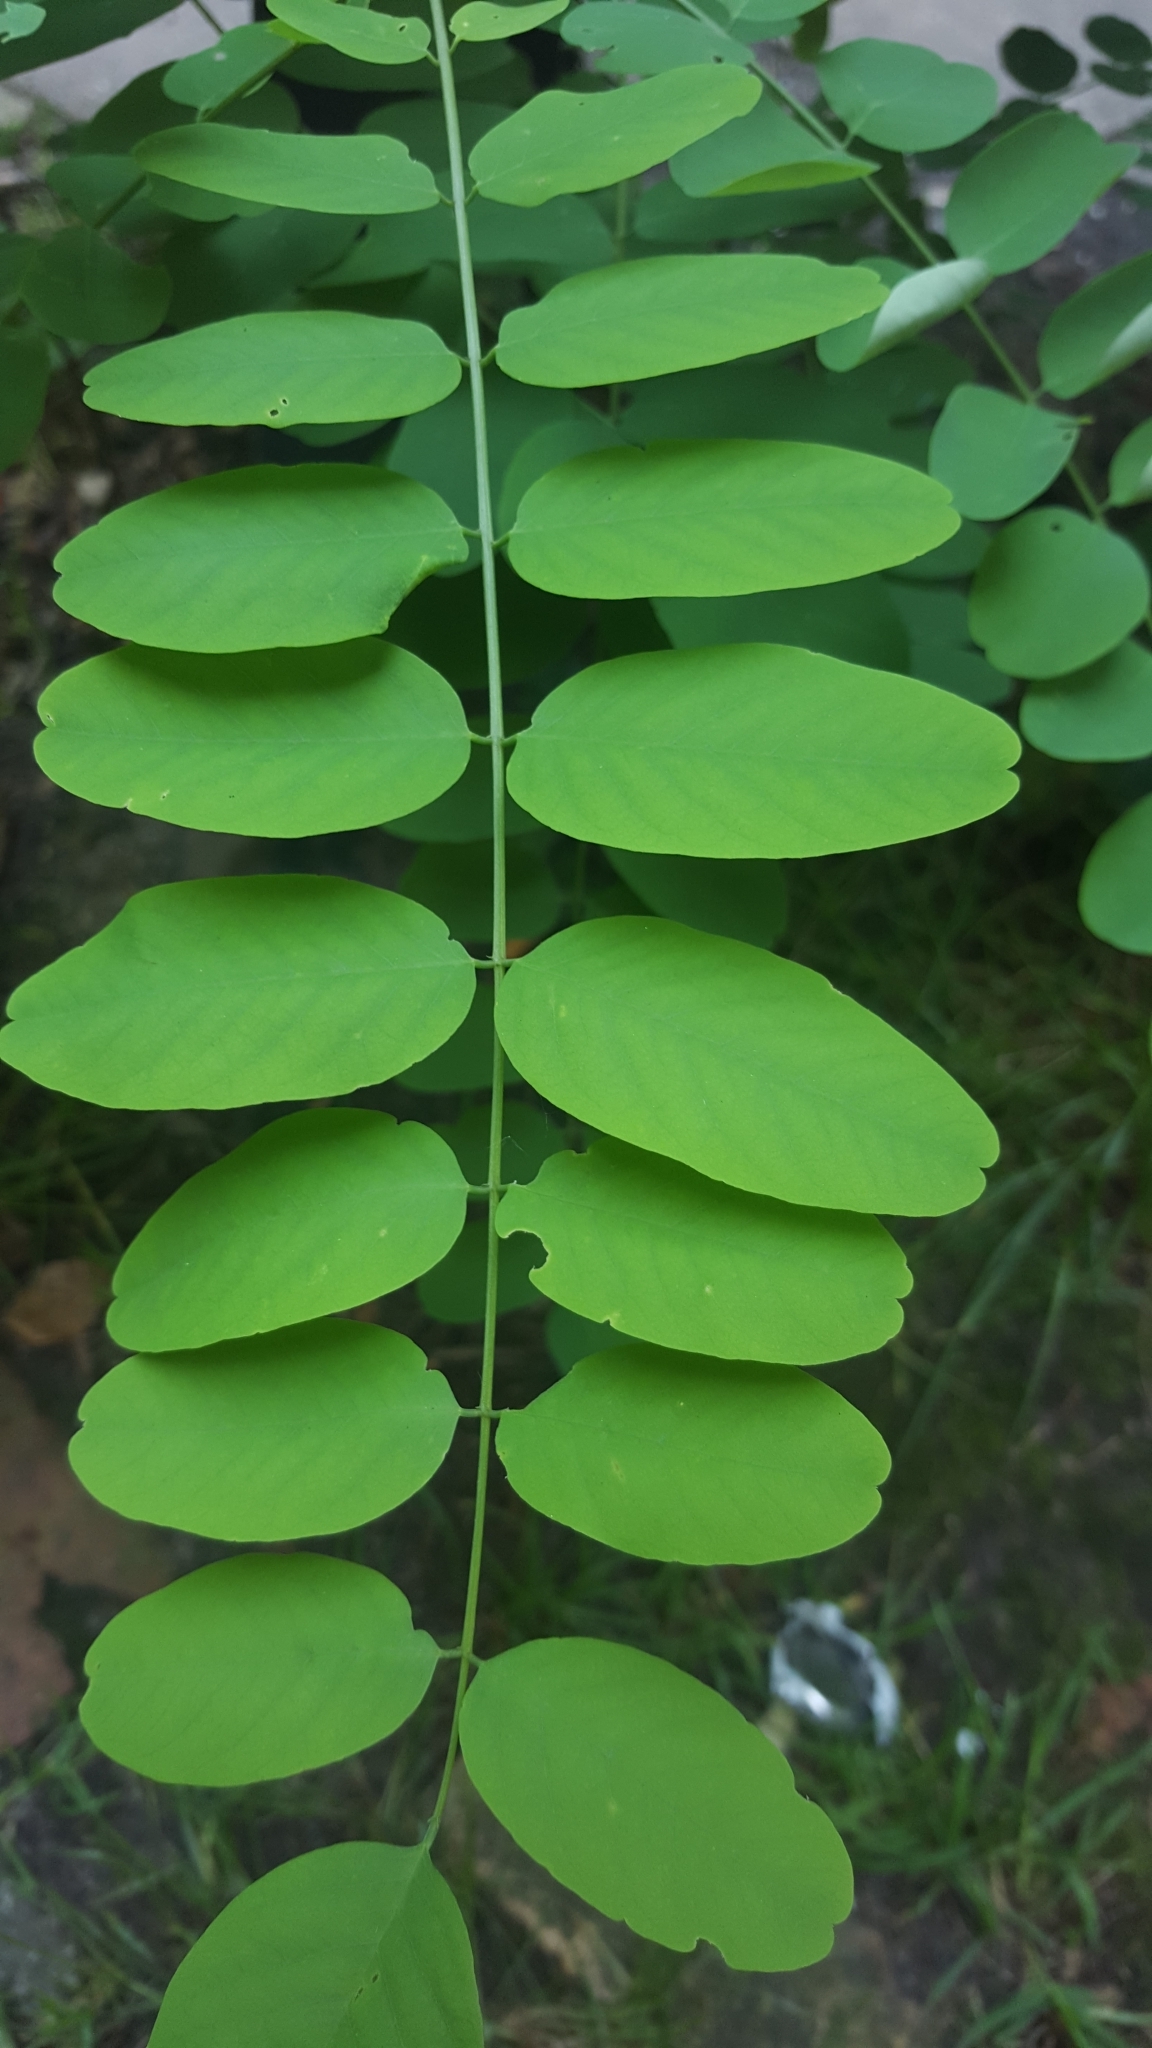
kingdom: Plantae
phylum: Tracheophyta
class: Magnoliopsida
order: Fabales
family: Fabaceae
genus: Robinia
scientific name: Robinia pseudoacacia
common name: Black locust
